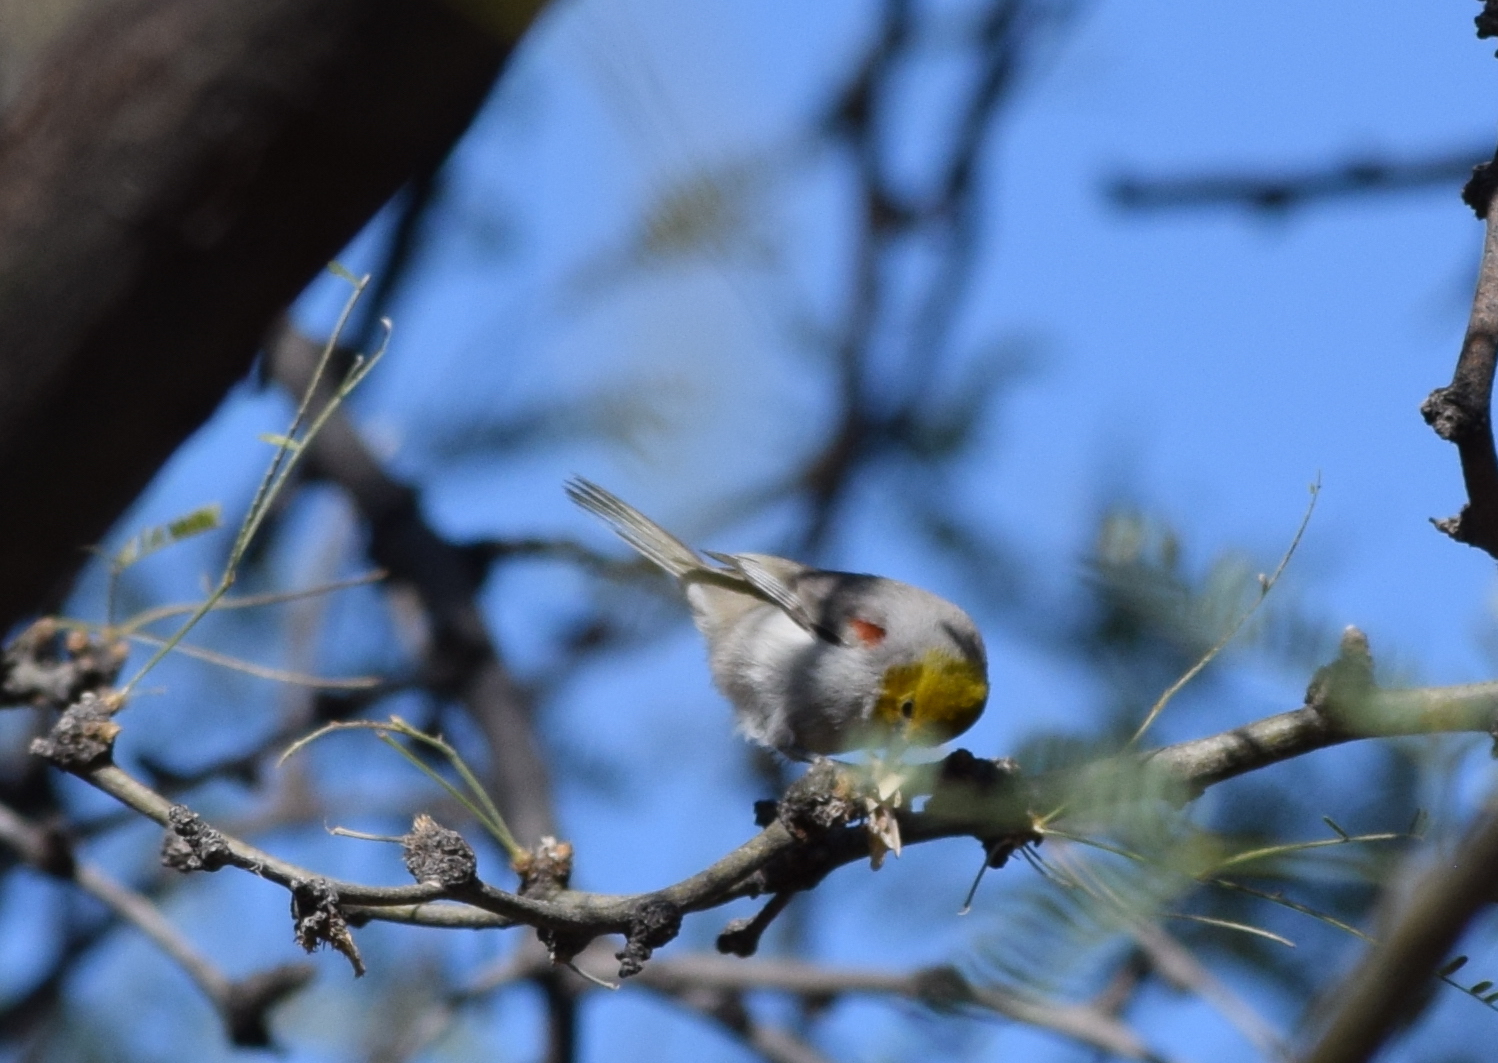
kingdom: Animalia
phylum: Chordata
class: Aves
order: Passeriformes
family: Remizidae
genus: Auriparus
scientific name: Auriparus flaviceps
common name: Verdin
